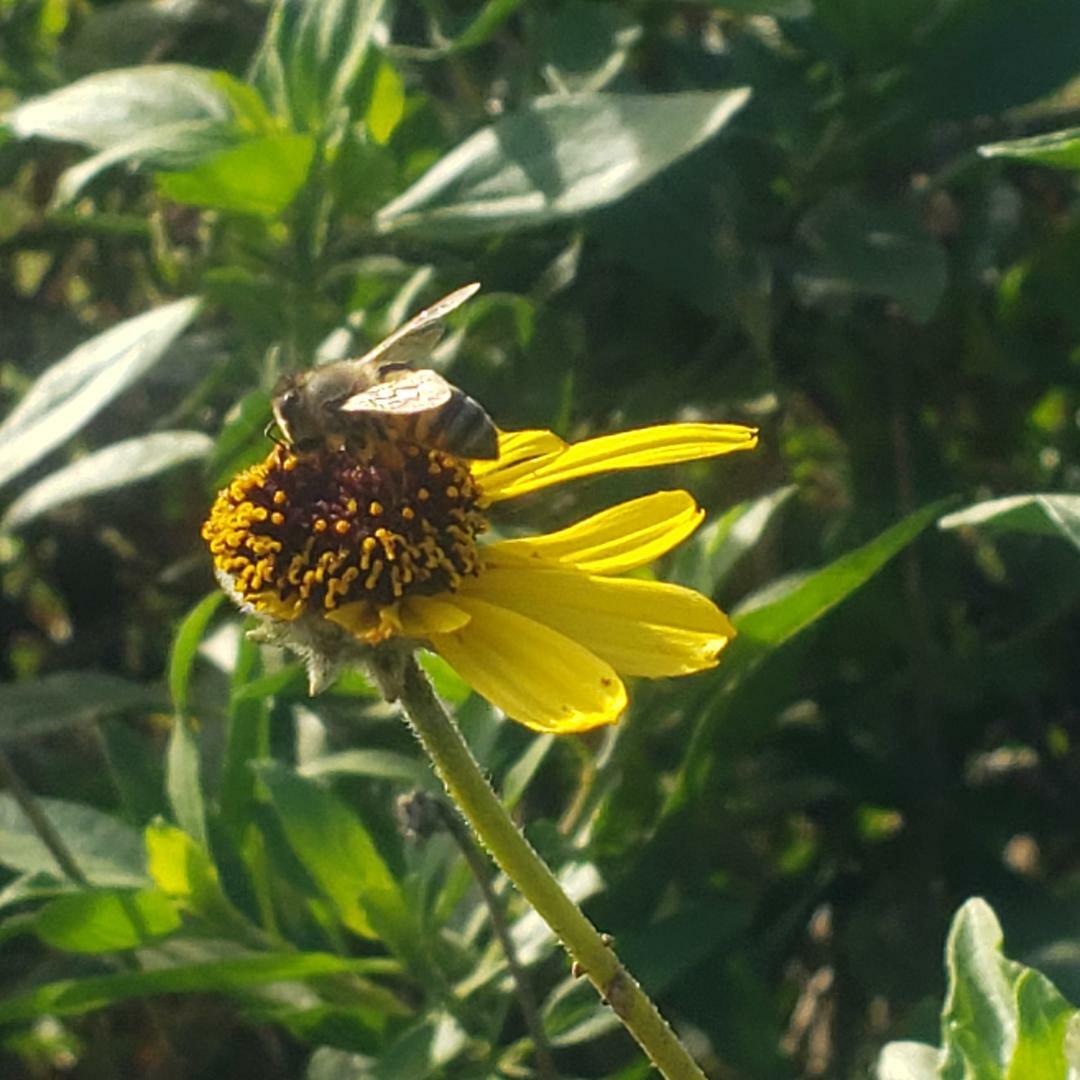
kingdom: Animalia
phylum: Arthropoda
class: Insecta
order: Hymenoptera
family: Apidae
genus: Apis
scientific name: Apis mellifera
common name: Honey bee
